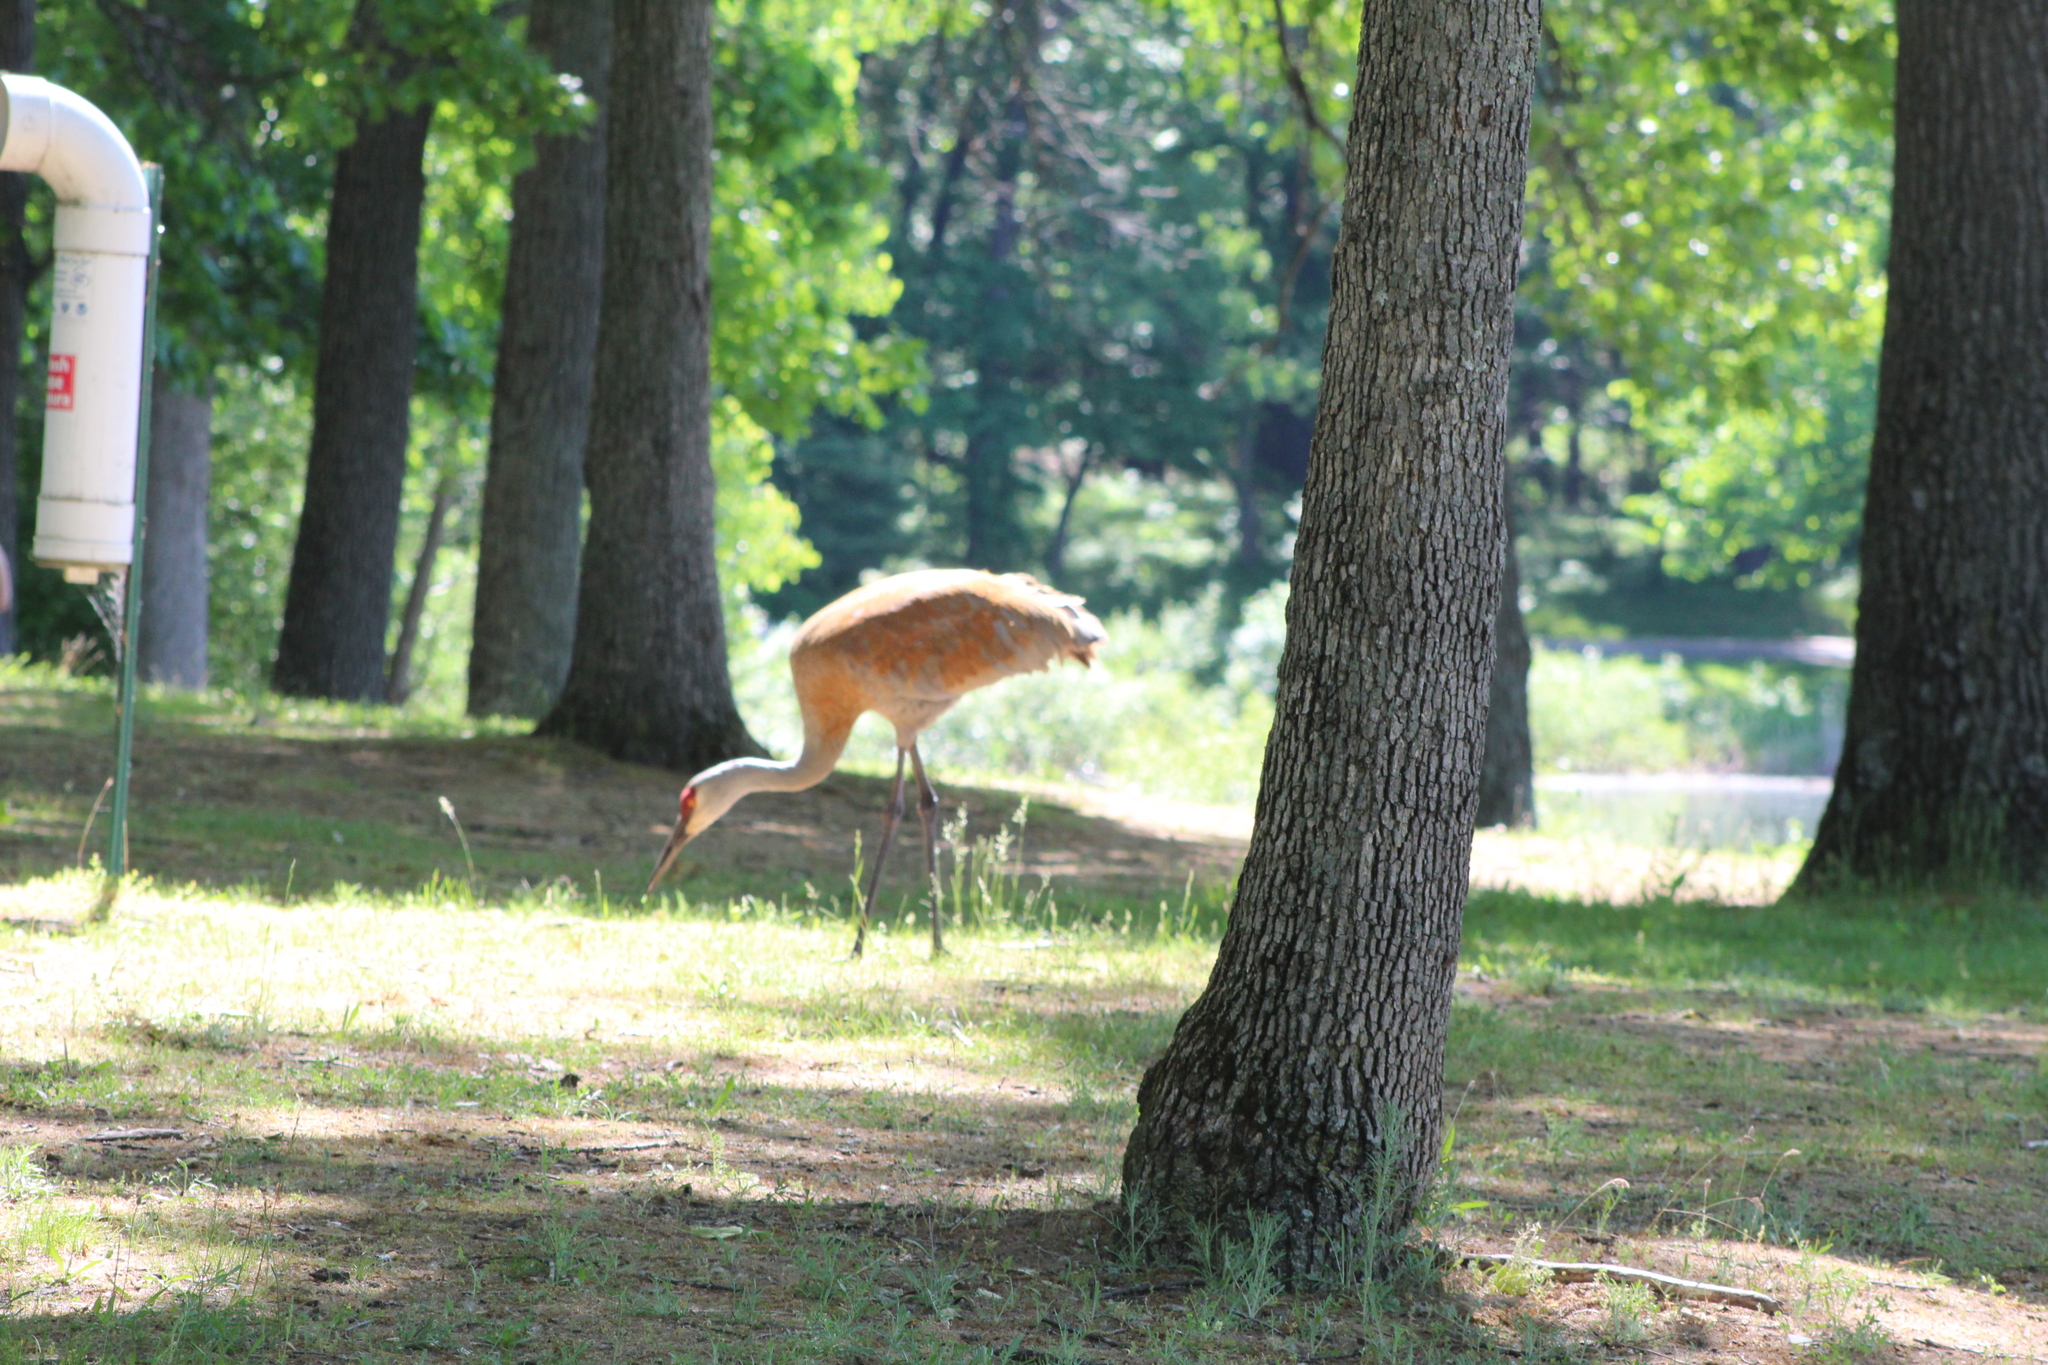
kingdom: Animalia
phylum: Chordata
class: Aves
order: Gruiformes
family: Gruidae
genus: Grus
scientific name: Grus canadensis
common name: Sandhill crane
